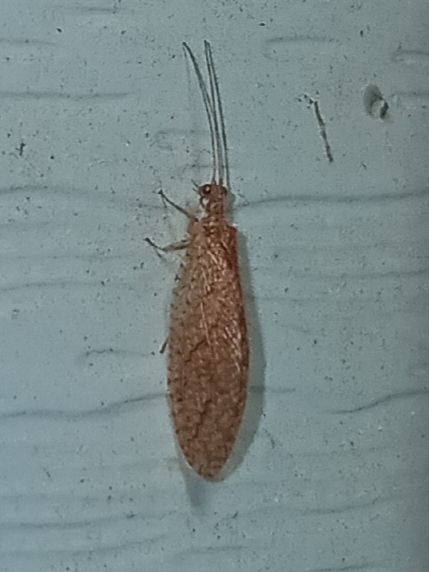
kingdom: Animalia
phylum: Arthropoda
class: Insecta
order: Neuroptera
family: Hemerobiidae
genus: Micromus
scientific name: Micromus posticus
